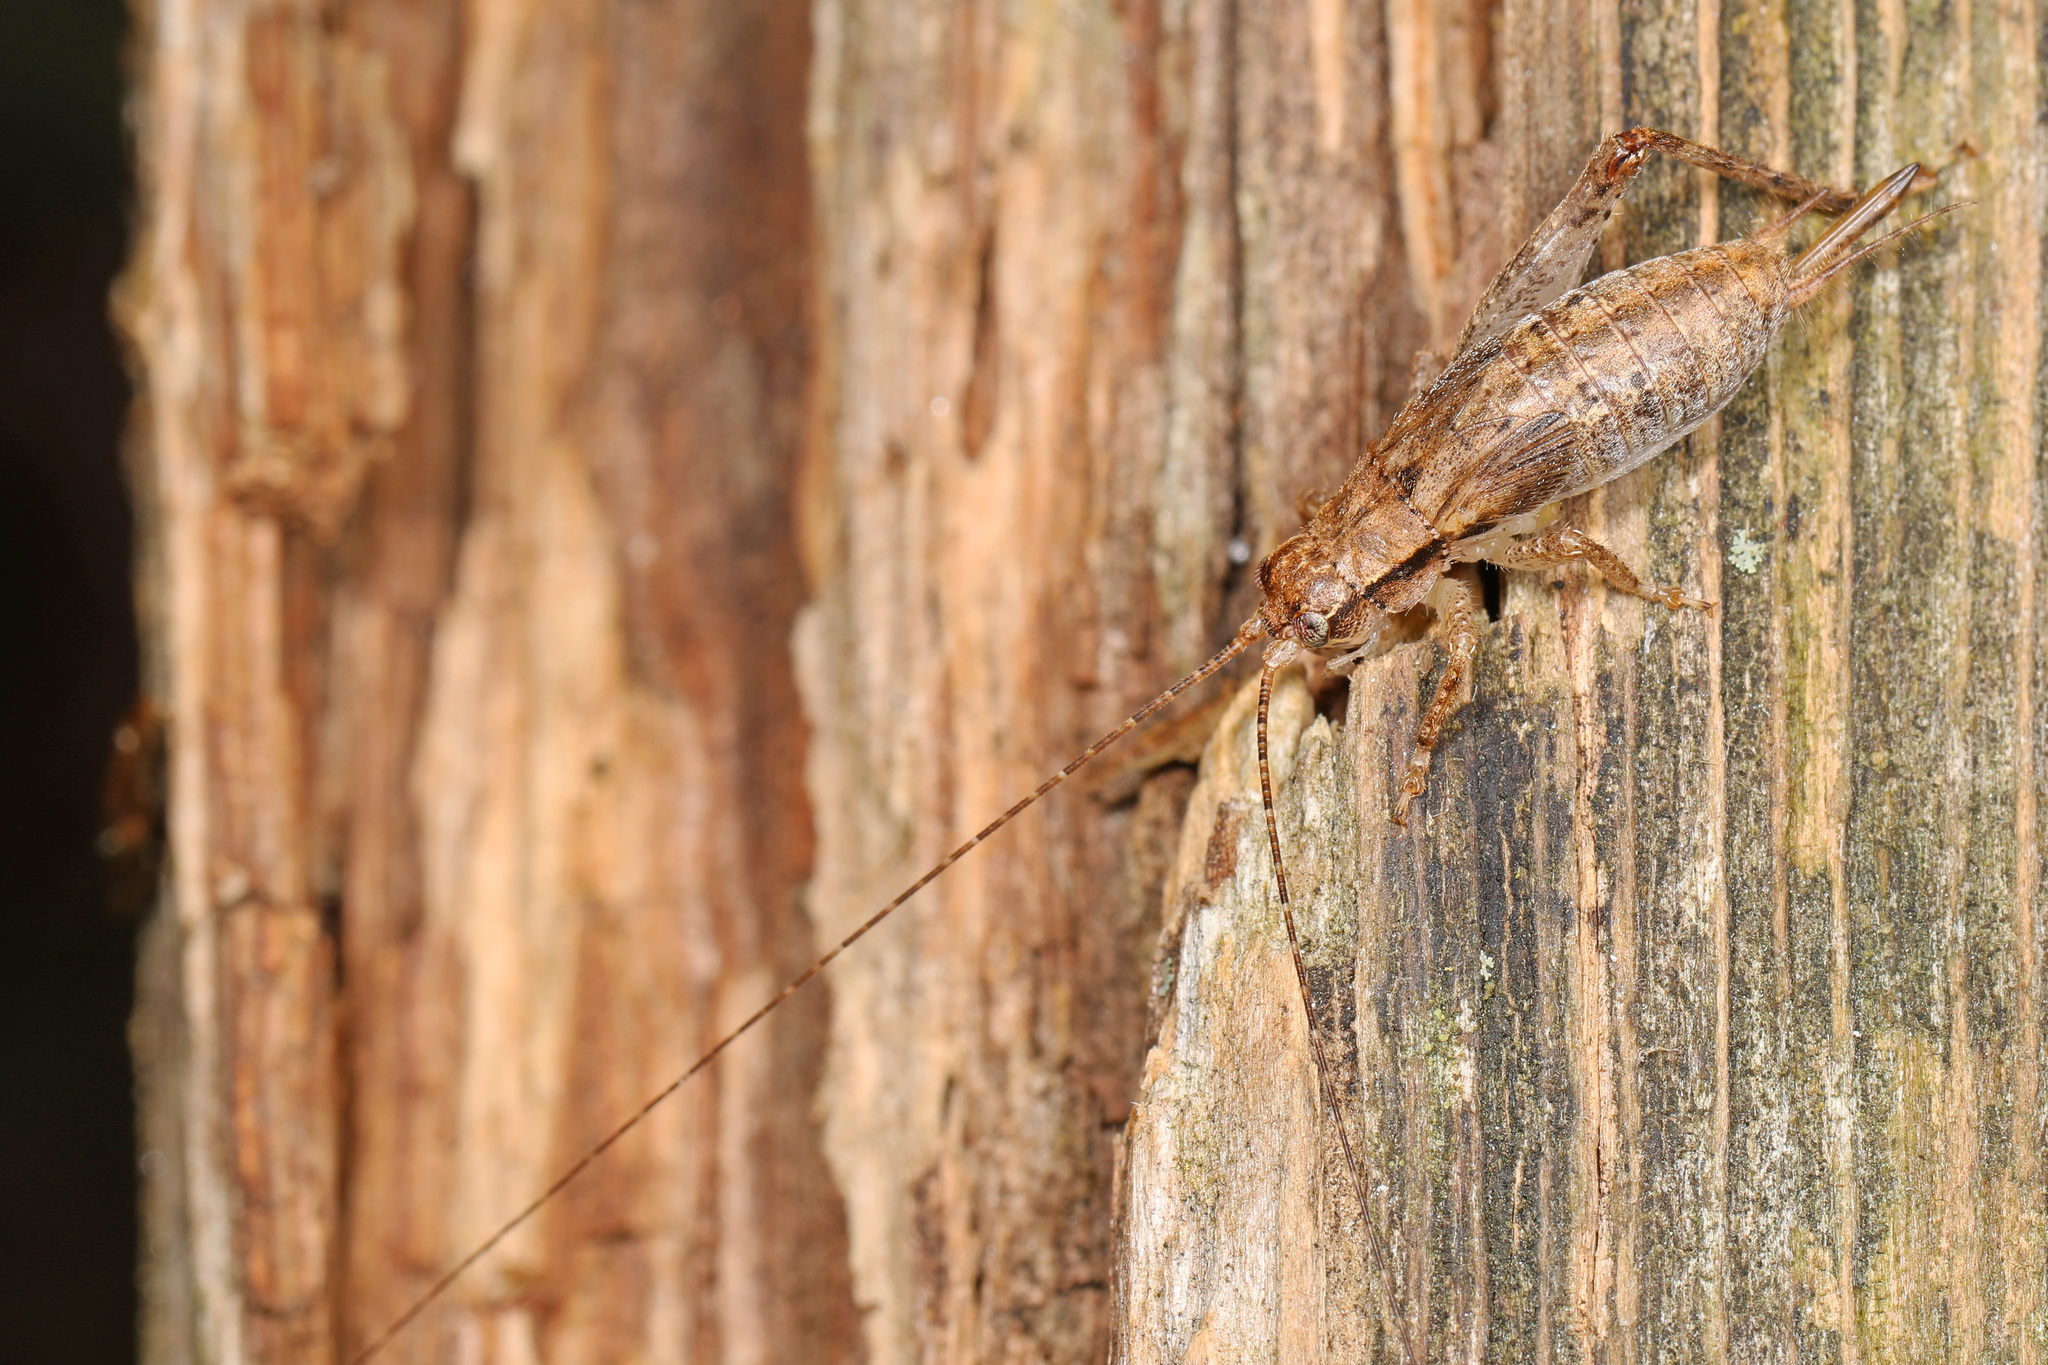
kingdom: Animalia
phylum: Arthropoda
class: Insecta
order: Orthoptera
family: Gryllidae
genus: Hapithus
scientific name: Hapithus saltator
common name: Jumping bush cricket
